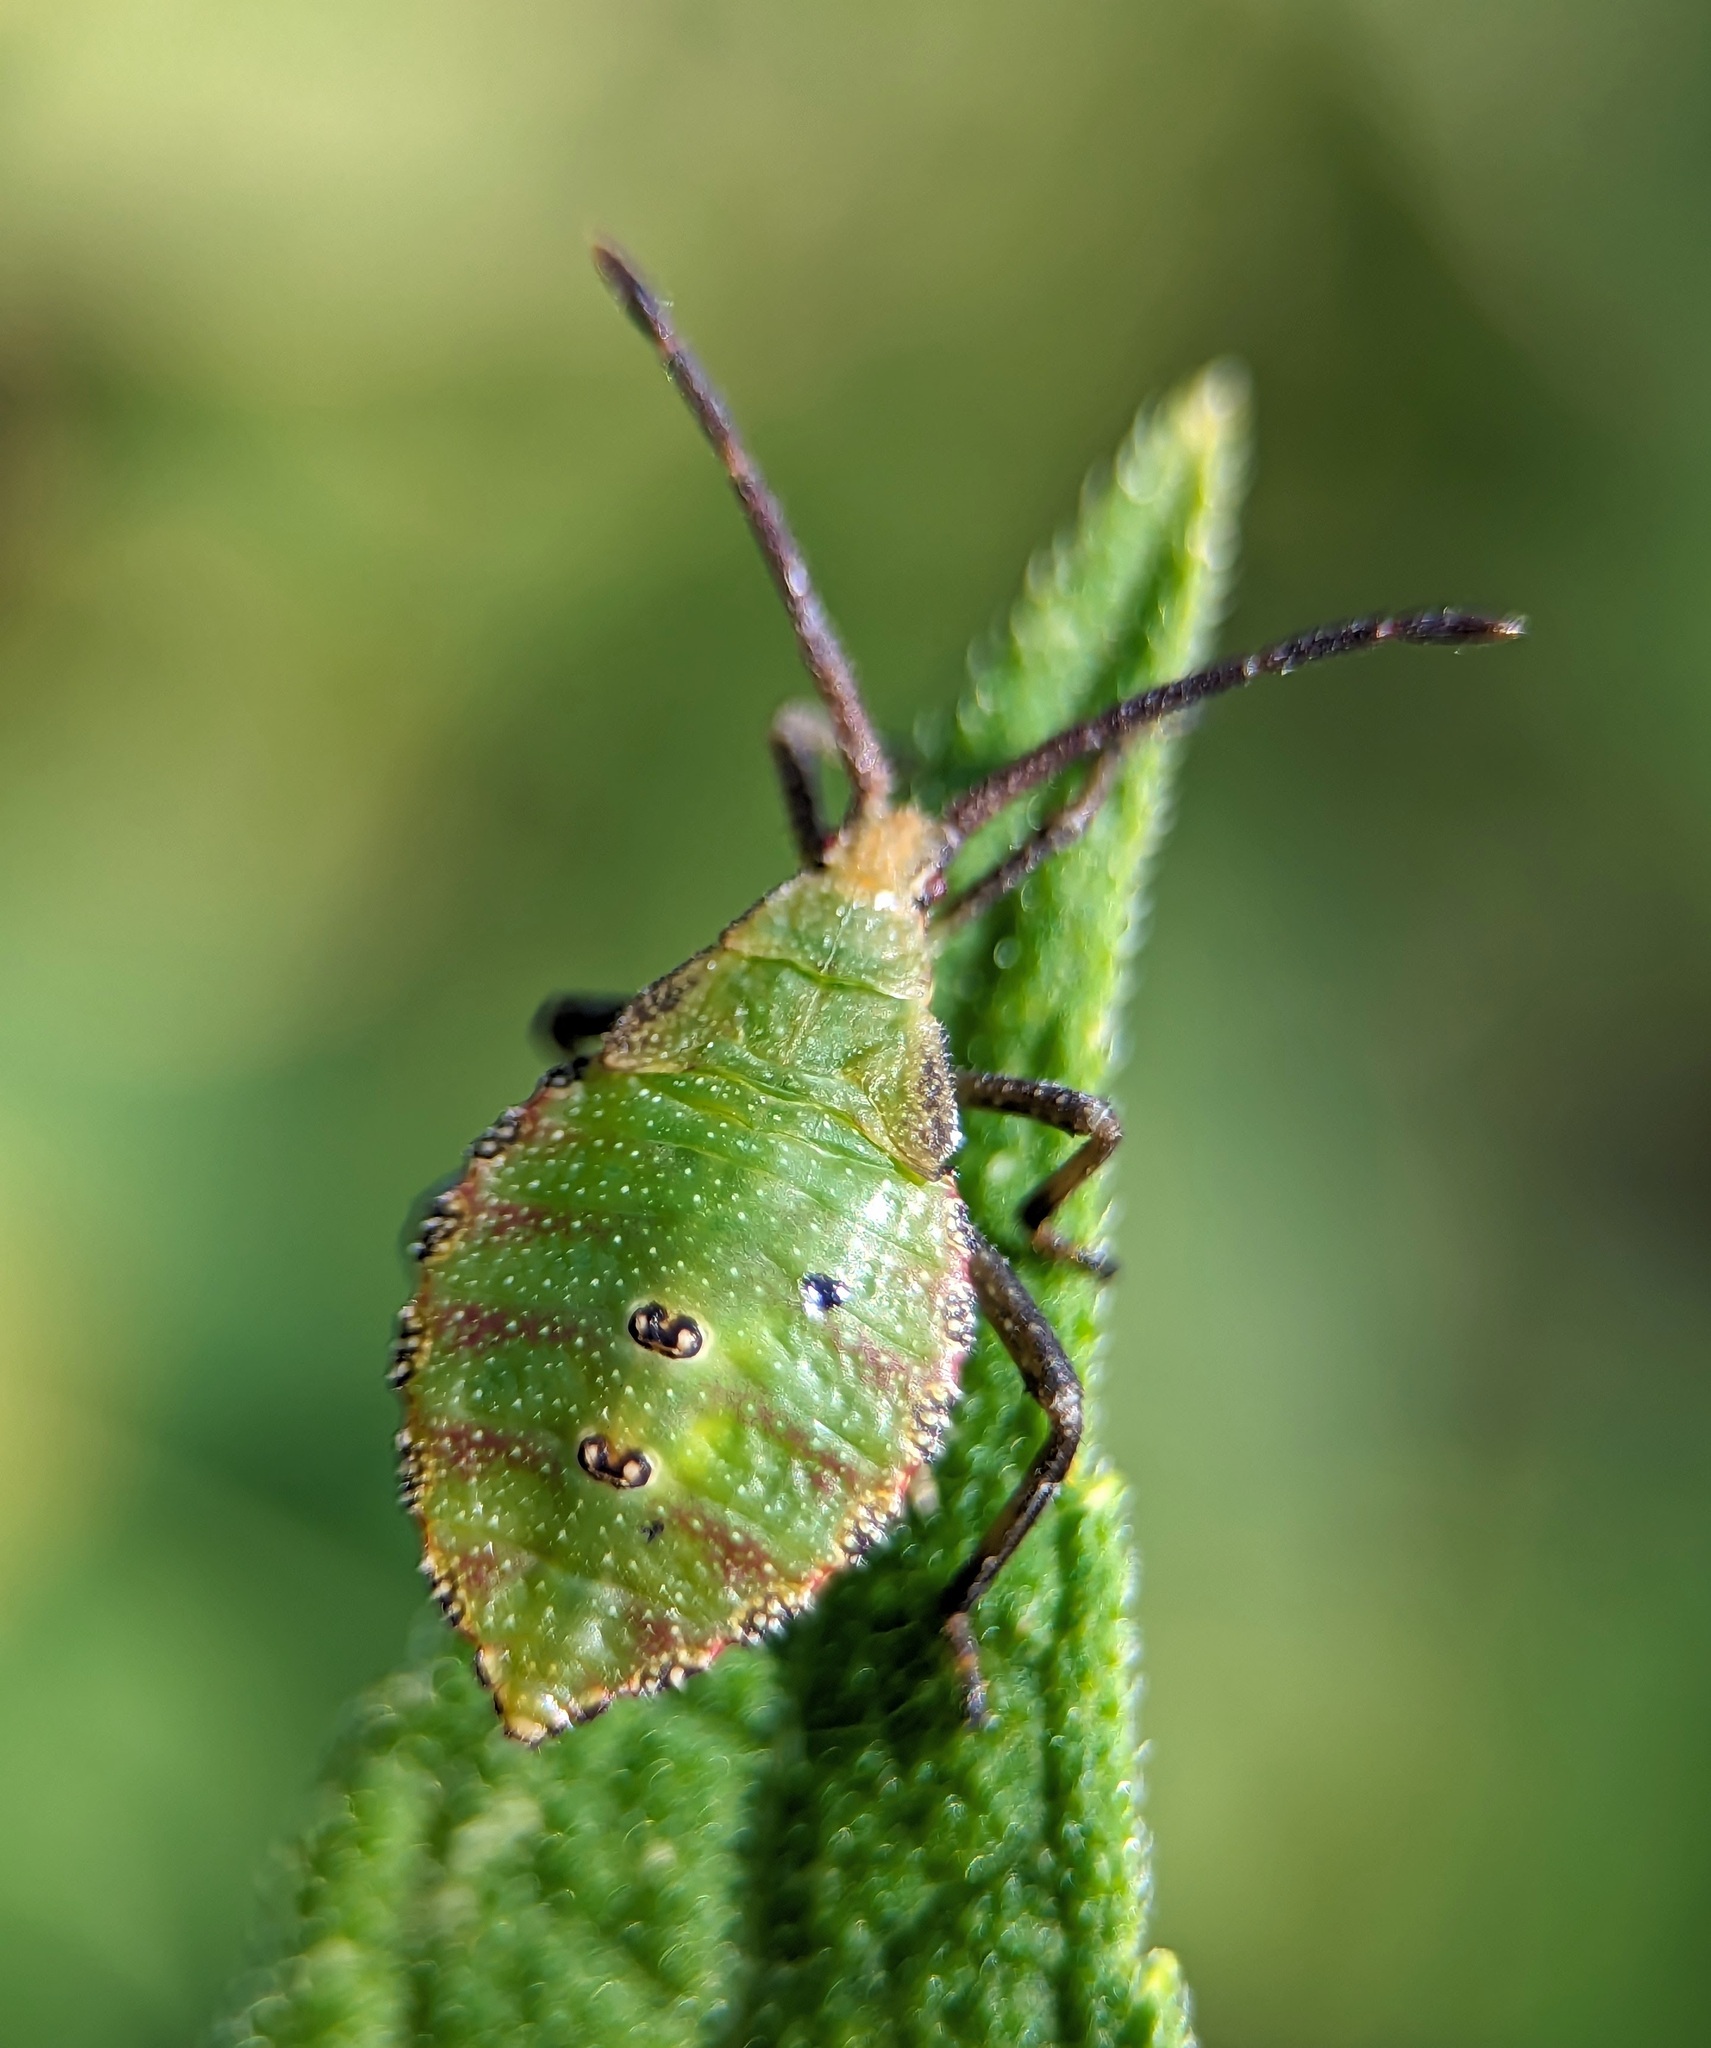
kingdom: Animalia
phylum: Arthropoda
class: Insecta
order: Hemiptera
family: Coreidae
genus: Piezogaster
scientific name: Piezogaster calcarator
